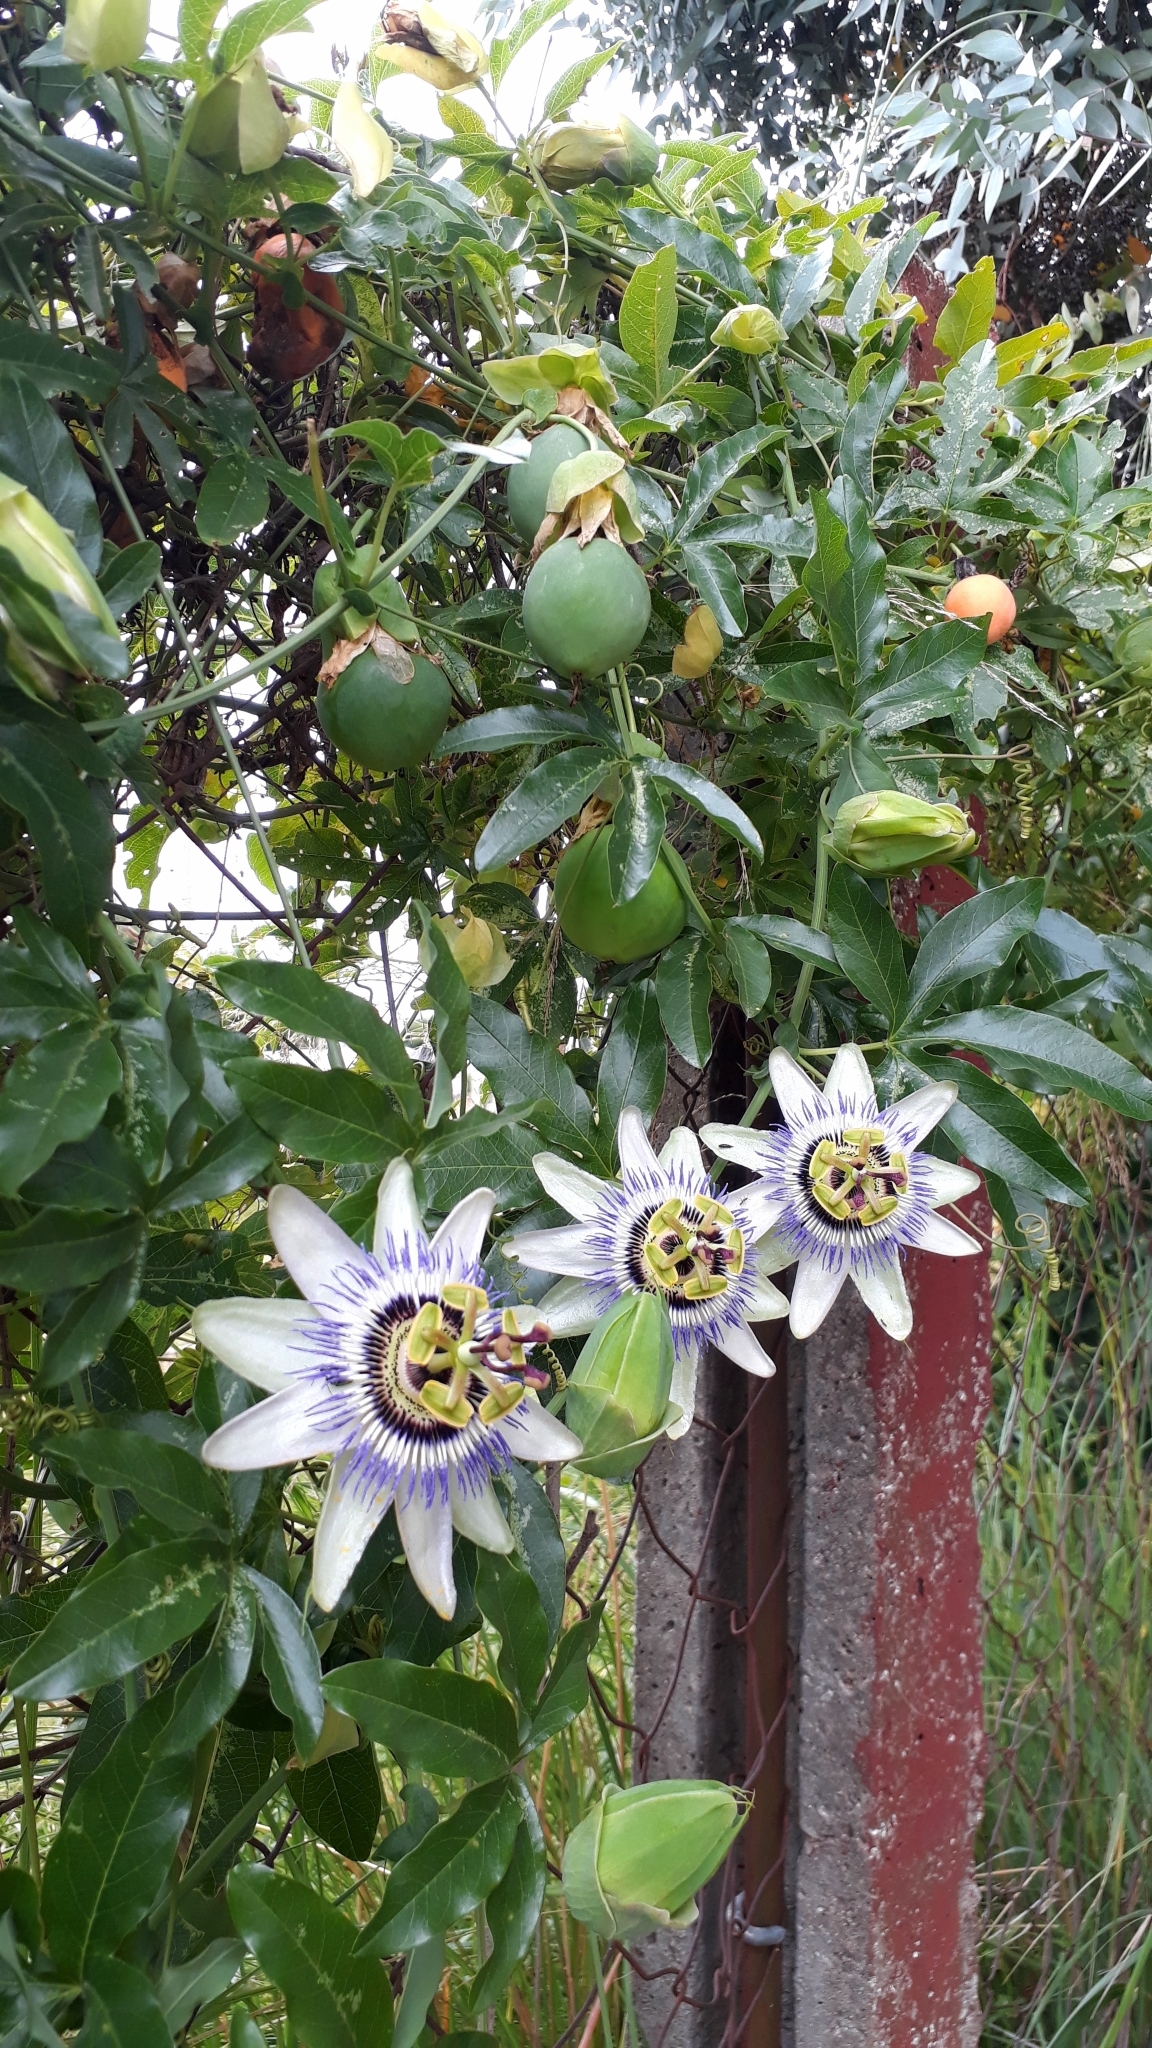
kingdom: Plantae
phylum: Tracheophyta
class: Magnoliopsida
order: Malpighiales
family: Passifloraceae
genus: Passiflora
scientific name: Passiflora caerulea
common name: Blue passionflower
